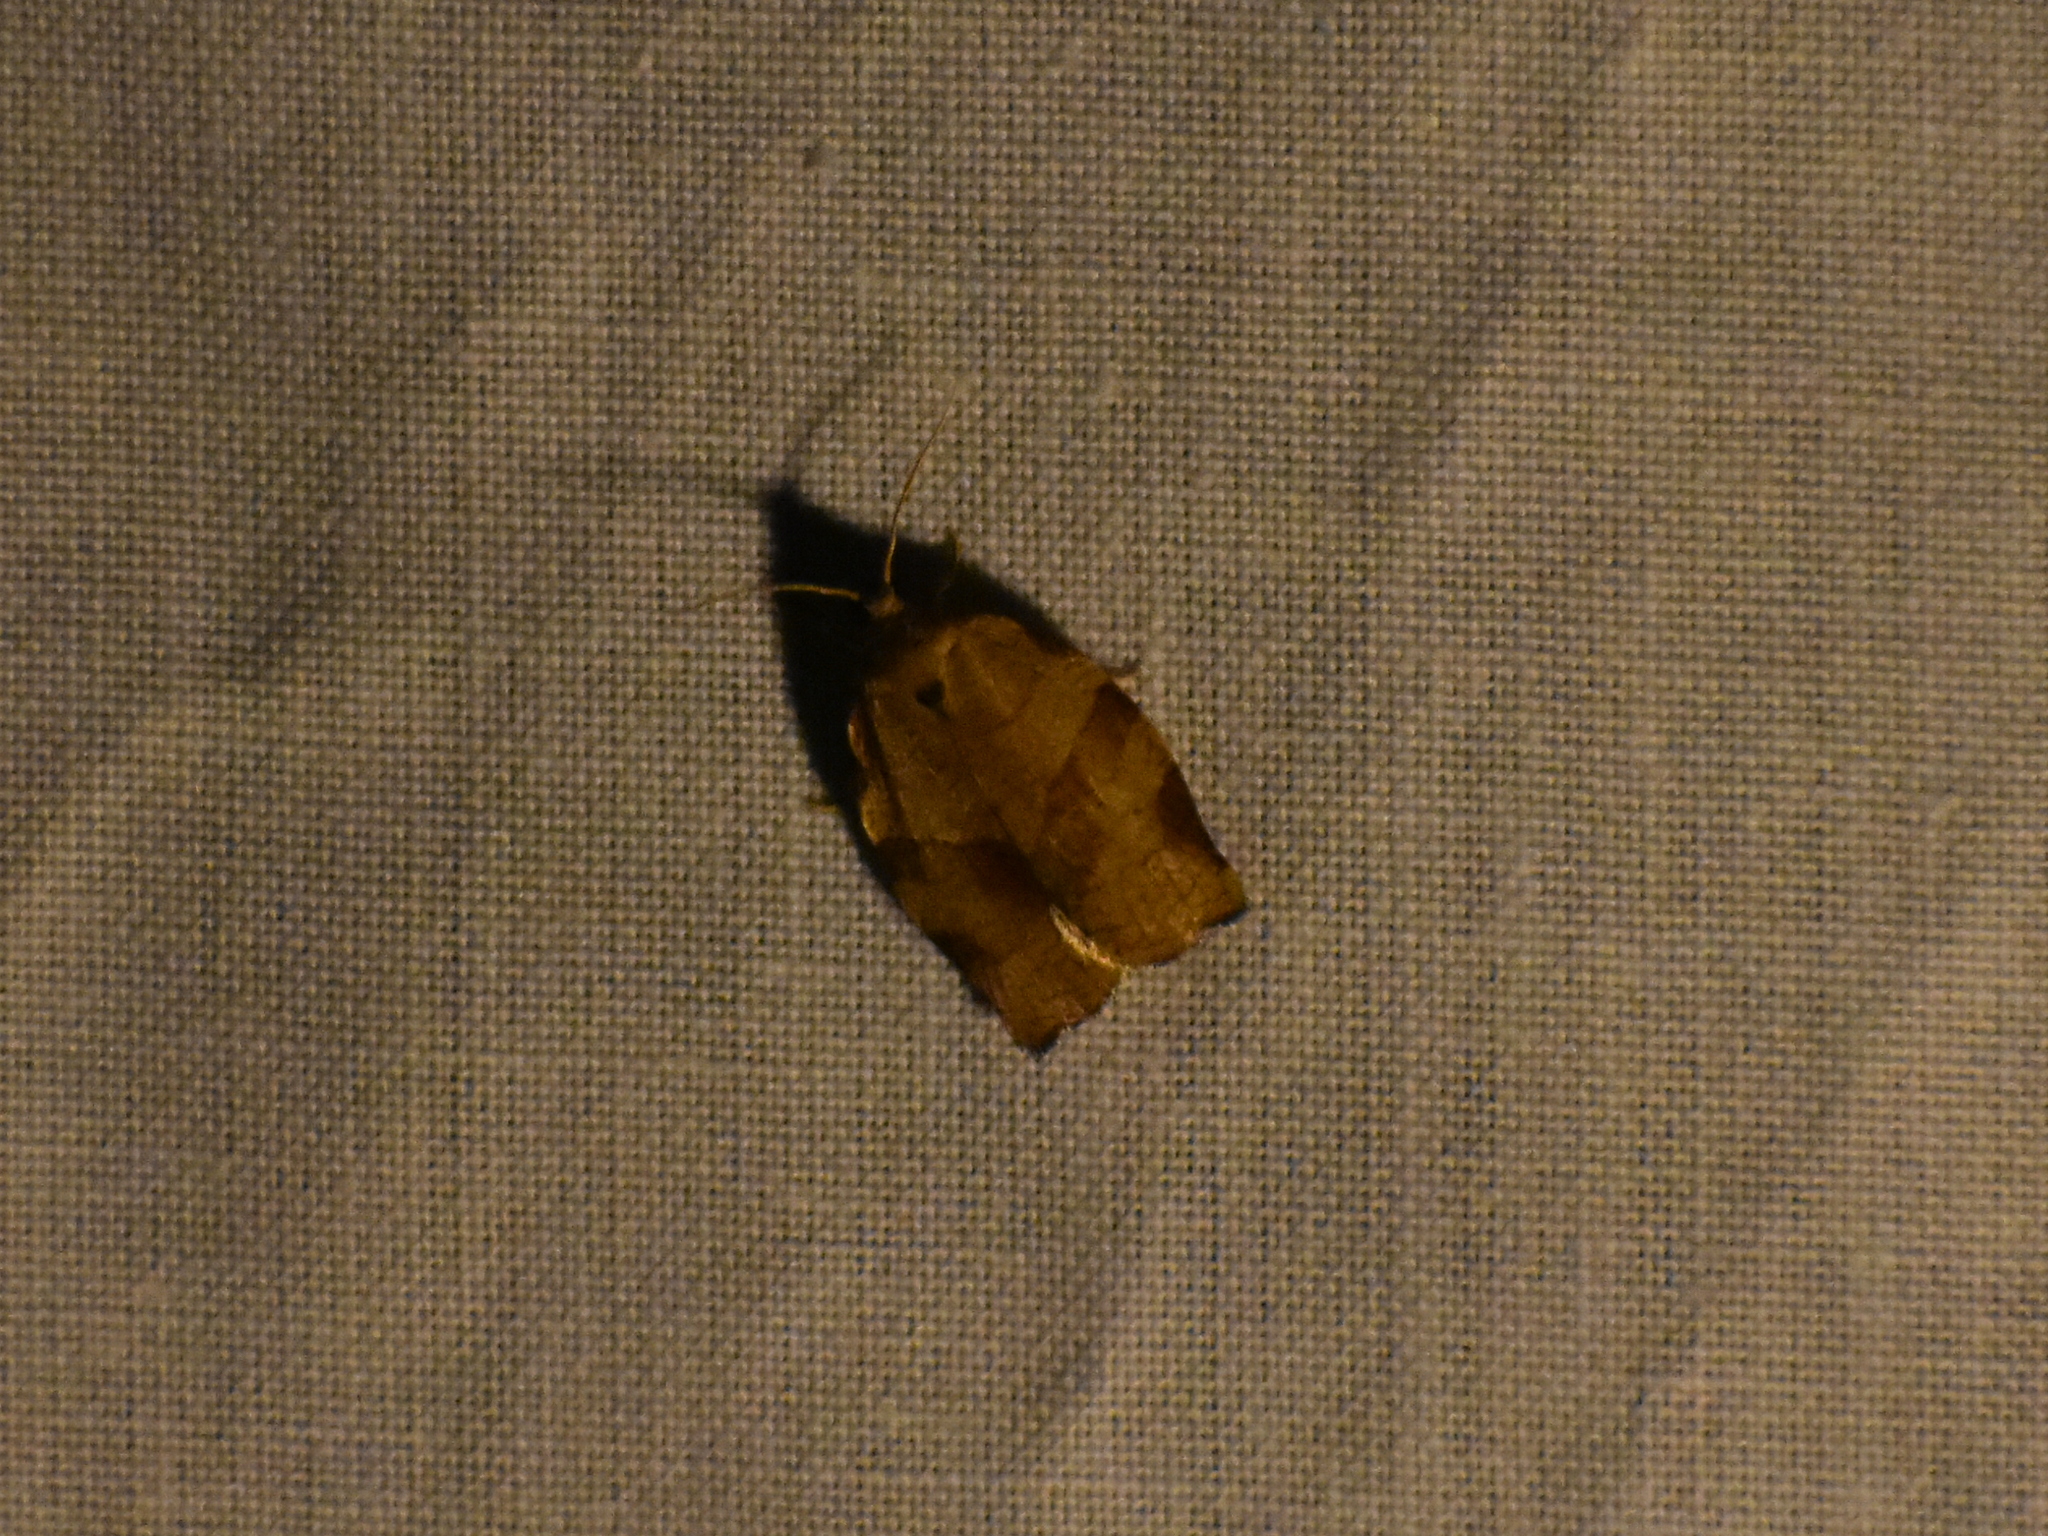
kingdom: Animalia
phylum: Arthropoda
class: Insecta
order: Lepidoptera
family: Tortricidae
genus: Choristoneura
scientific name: Choristoneura rosaceana
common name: Oblique-banded leafroller moth
